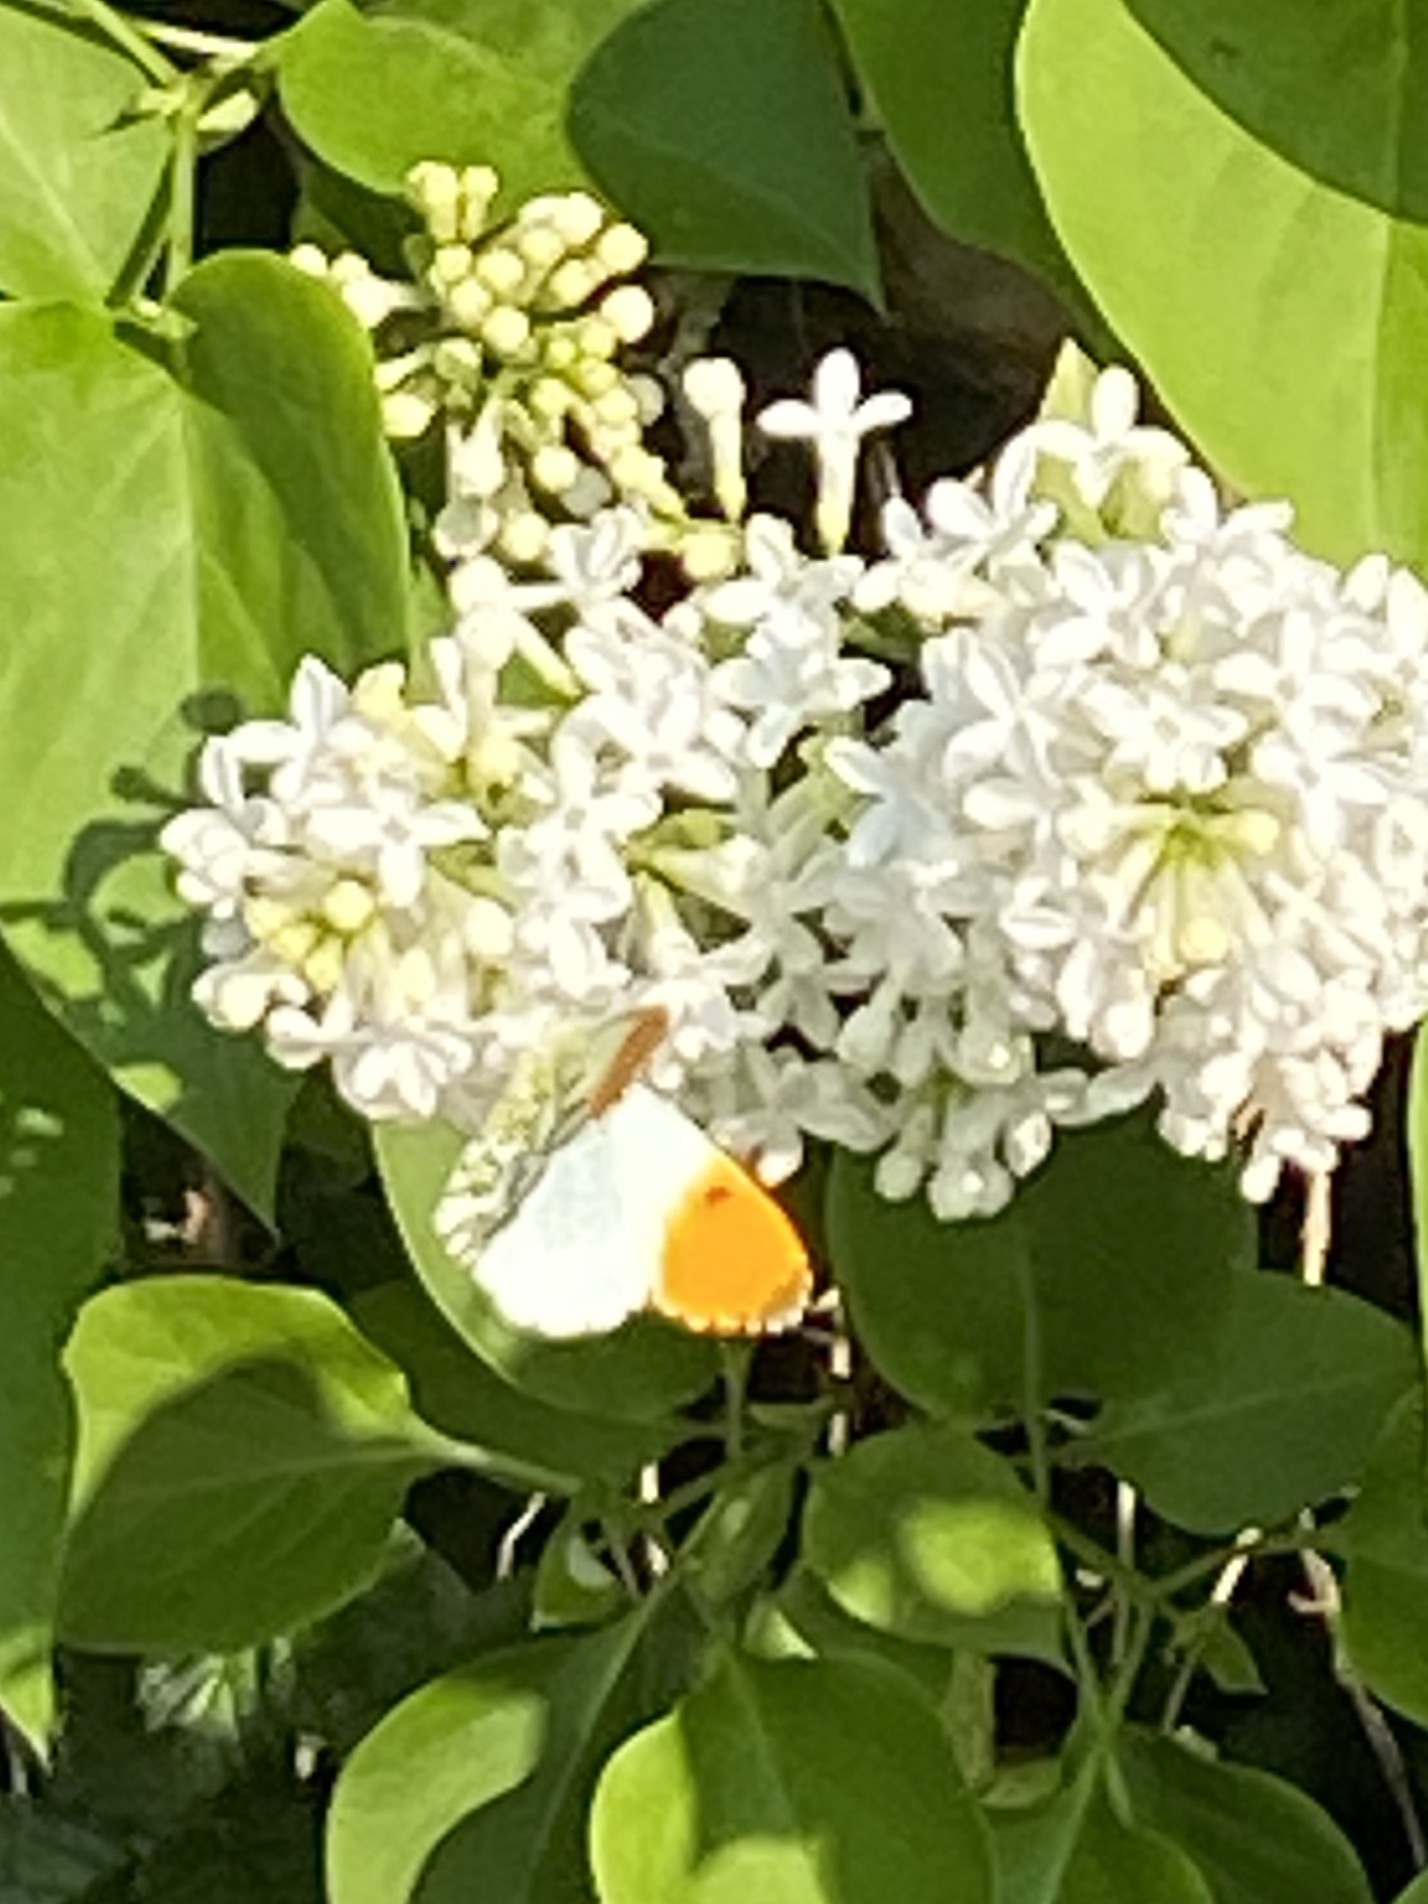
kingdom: Animalia
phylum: Arthropoda
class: Insecta
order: Lepidoptera
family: Pieridae
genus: Anthocharis
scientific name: Anthocharis cardamines
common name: Orange-tip
